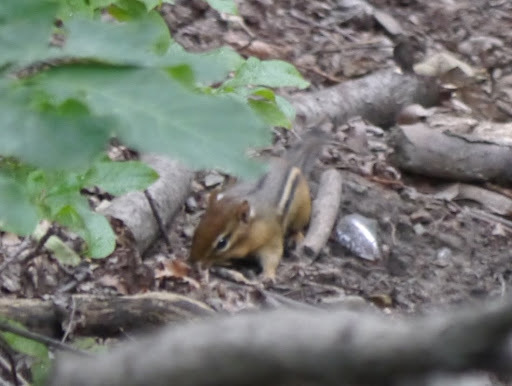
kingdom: Animalia
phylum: Chordata
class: Mammalia
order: Rodentia
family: Sciuridae
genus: Tamias
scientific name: Tamias striatus
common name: Eastern chipmunk
